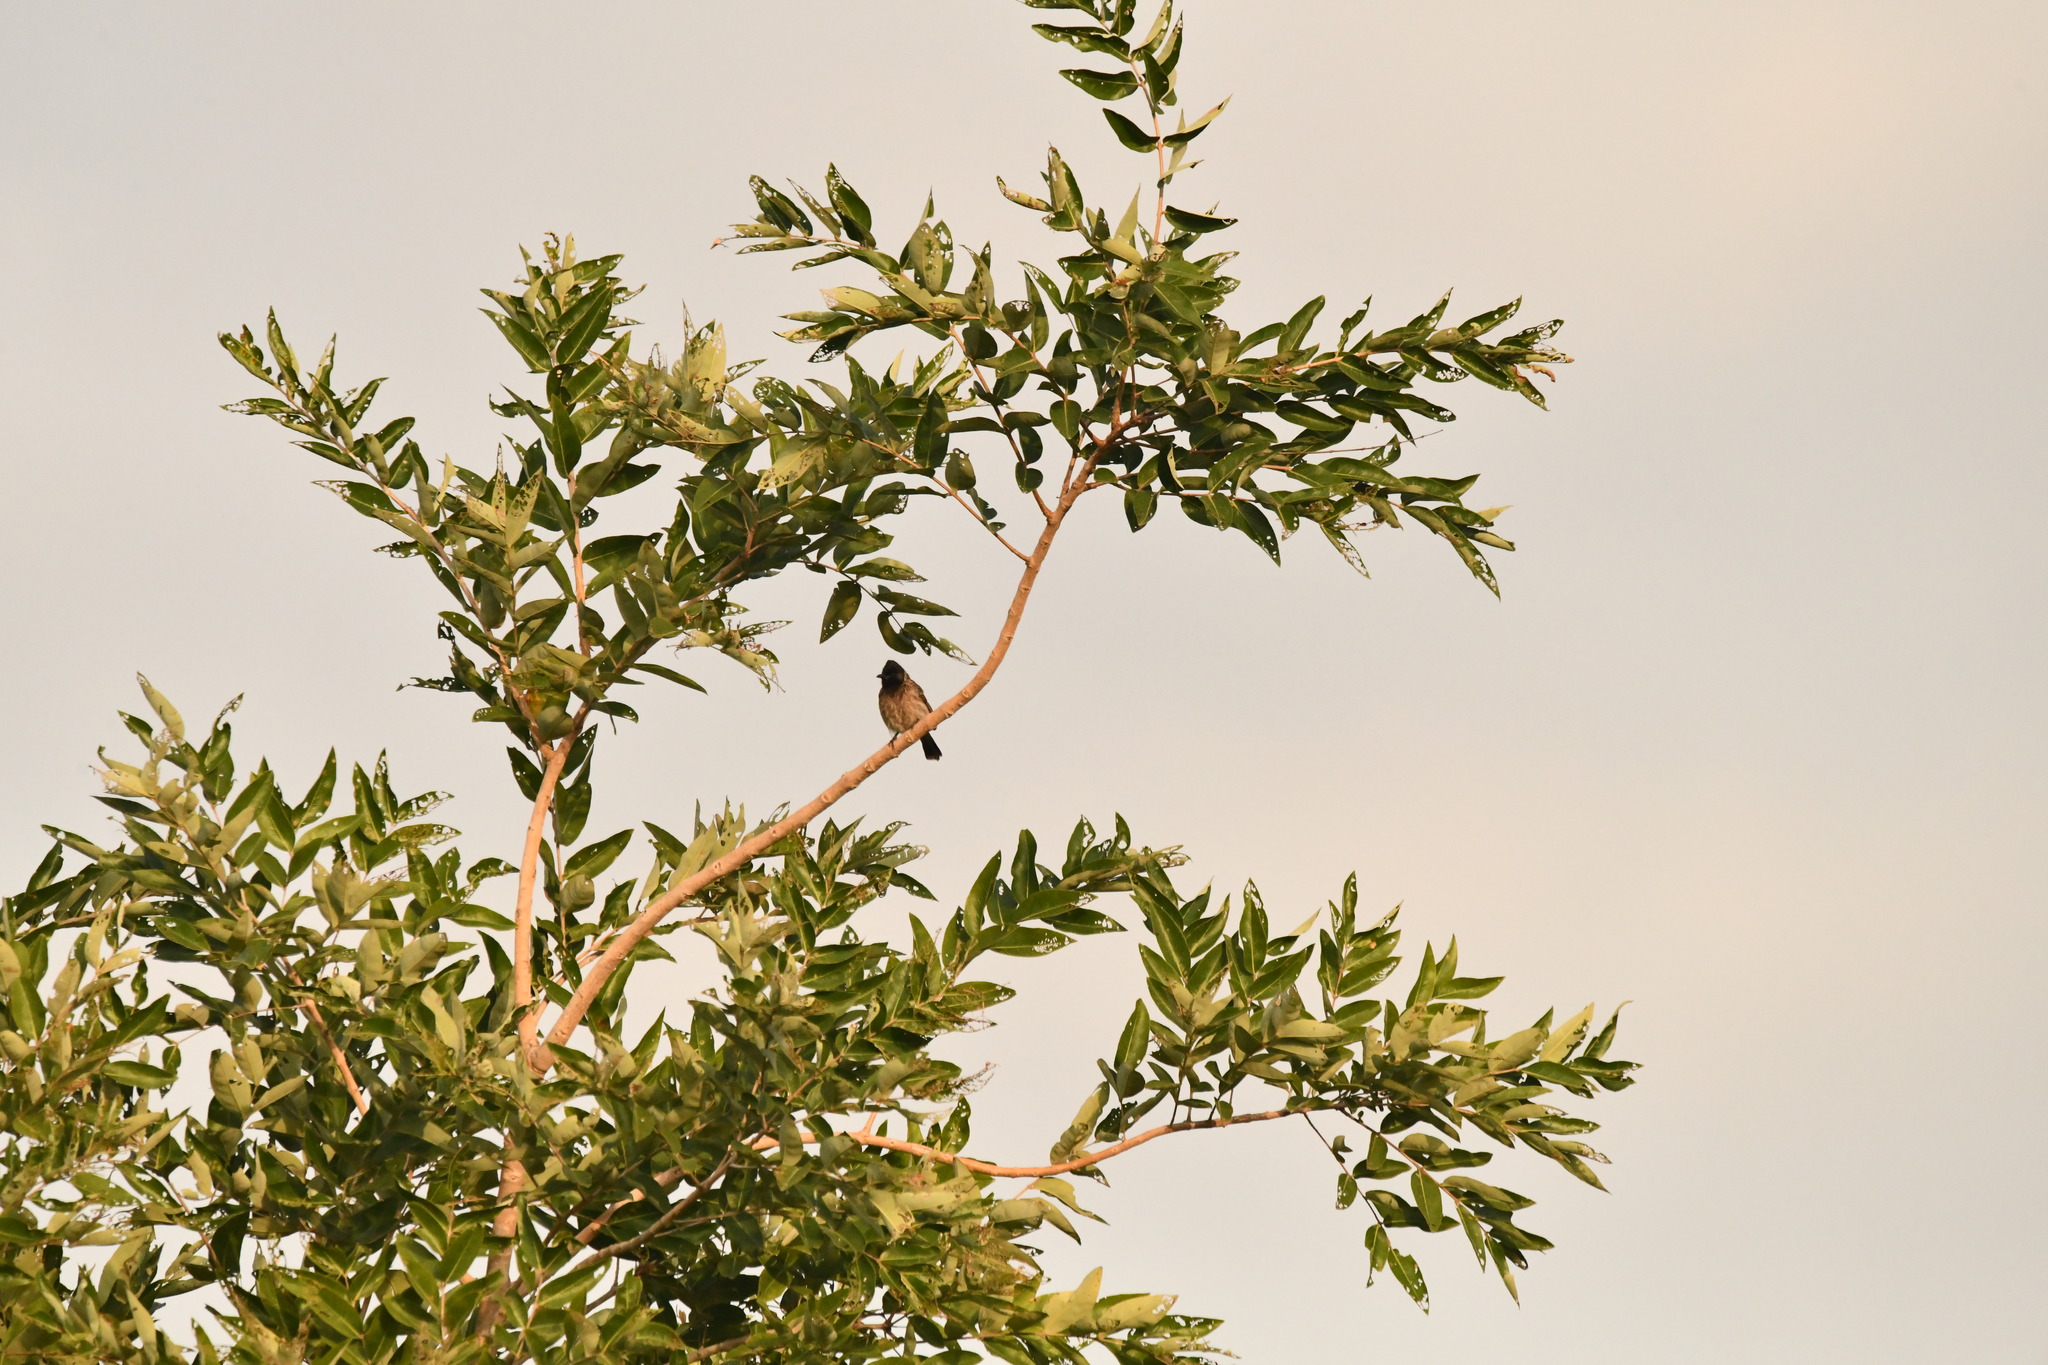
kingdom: Animalia
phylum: Chordata
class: Aves
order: Passeriformes
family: Pycnonotidae
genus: Pycnonotus
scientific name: Pycnonotus cafer
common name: Red-vented bulbul
